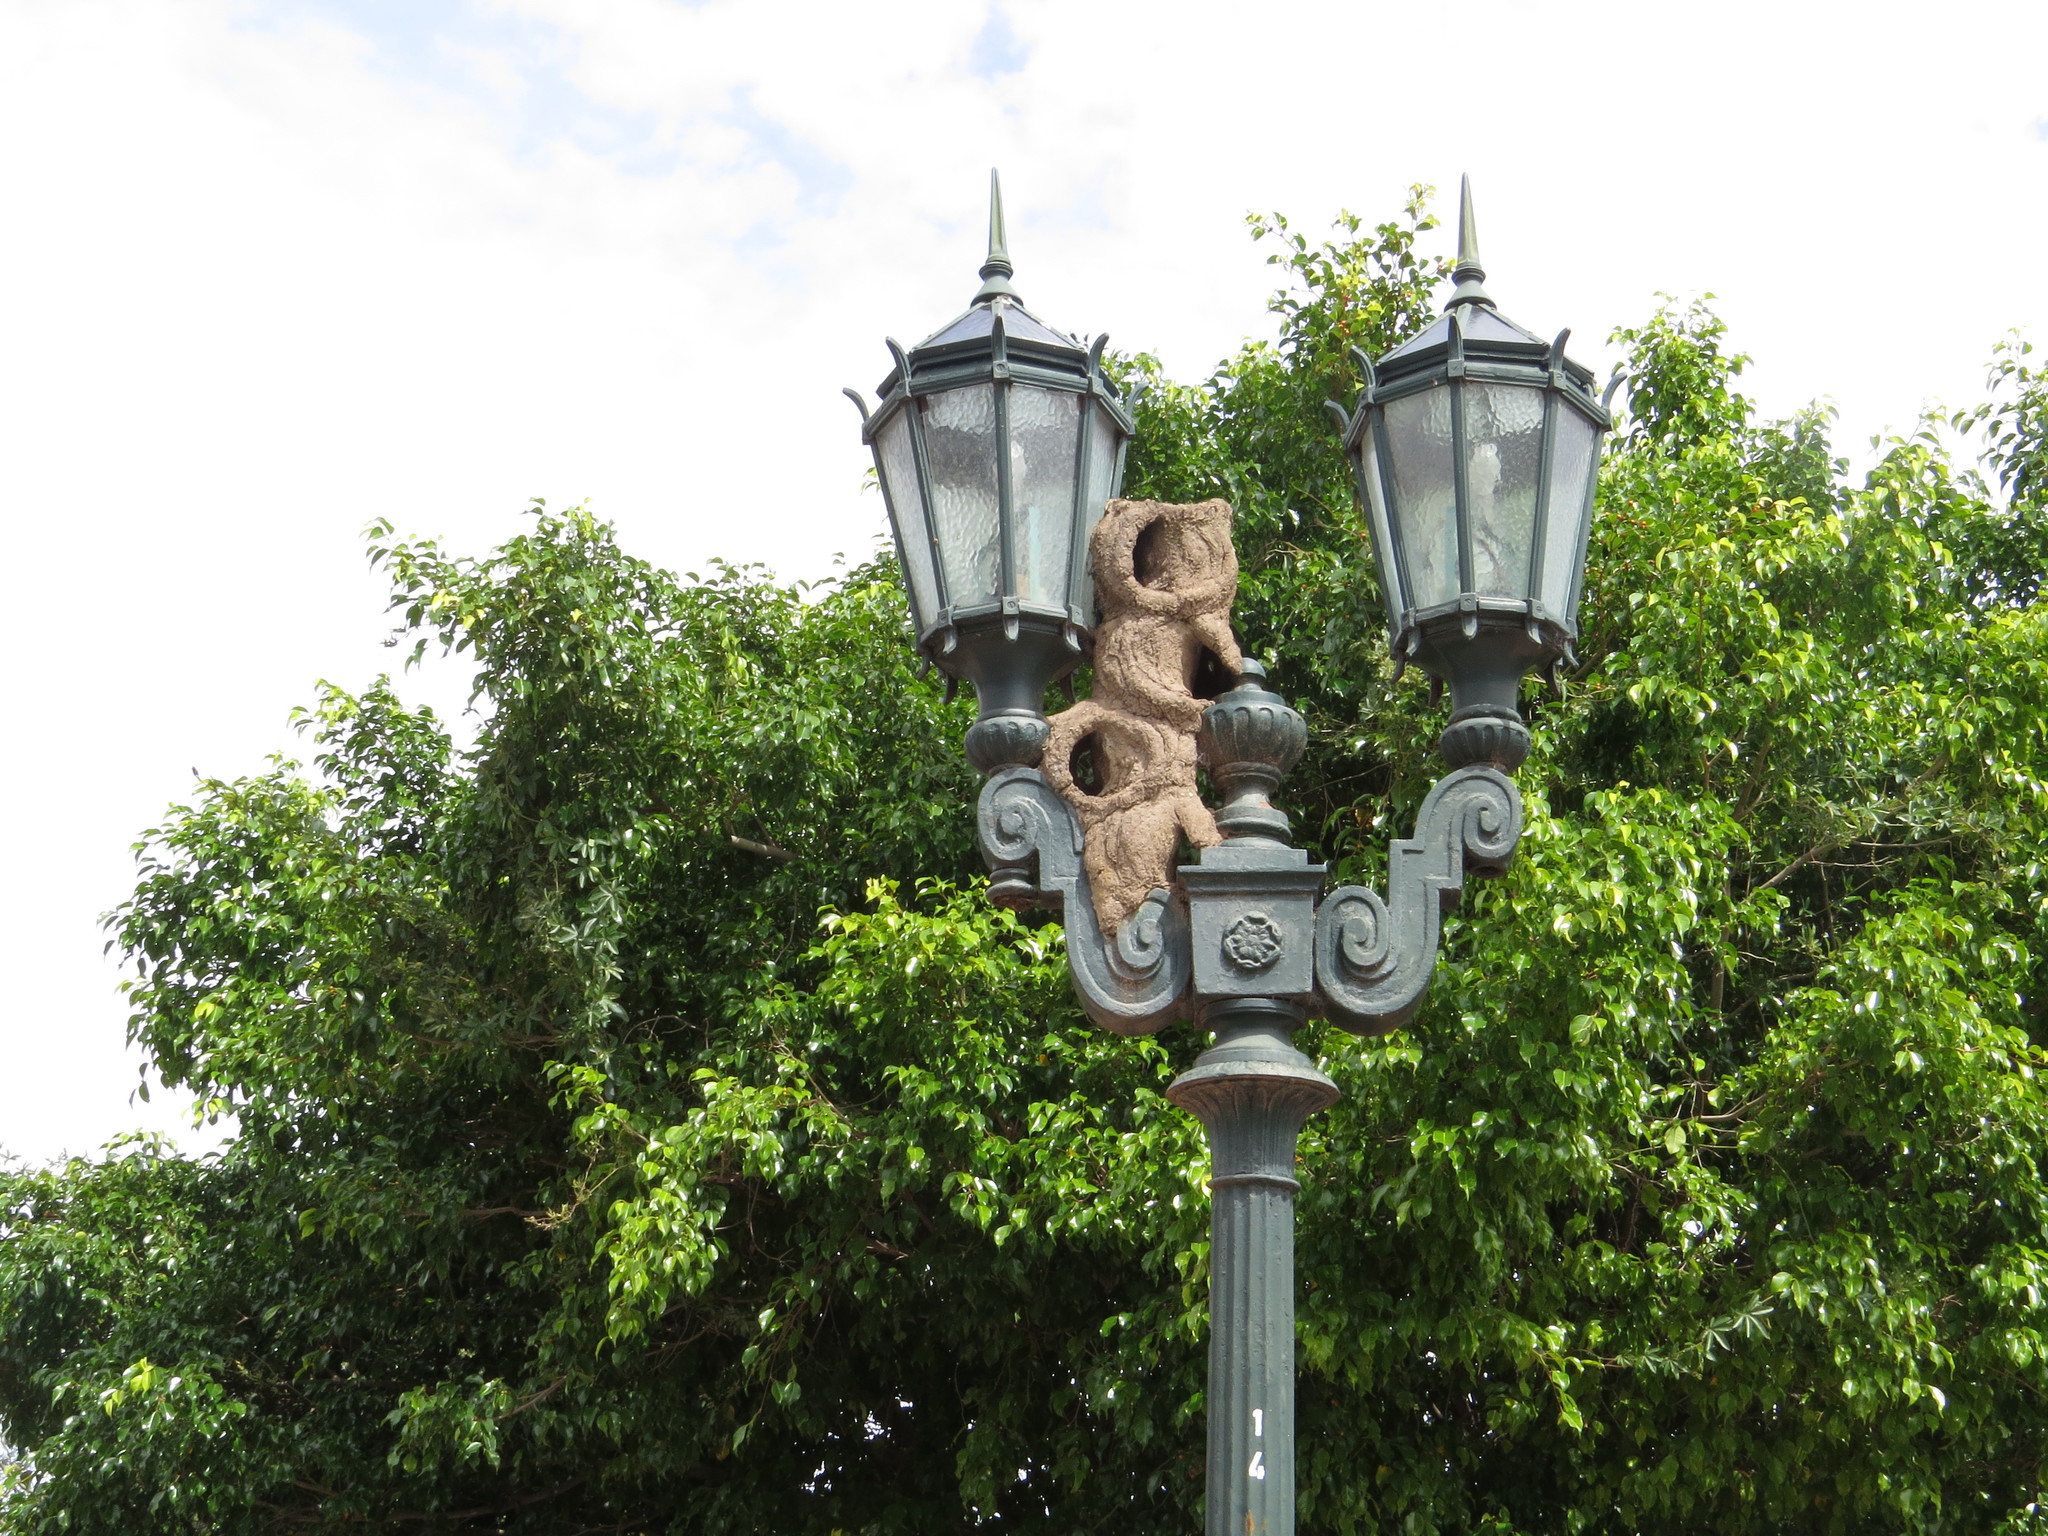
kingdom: Animalia
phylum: Chordata
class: Aves
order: Passeriformes
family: Furnariidae
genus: Furnarius
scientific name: Furnarius rufus
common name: Rufous hornero
